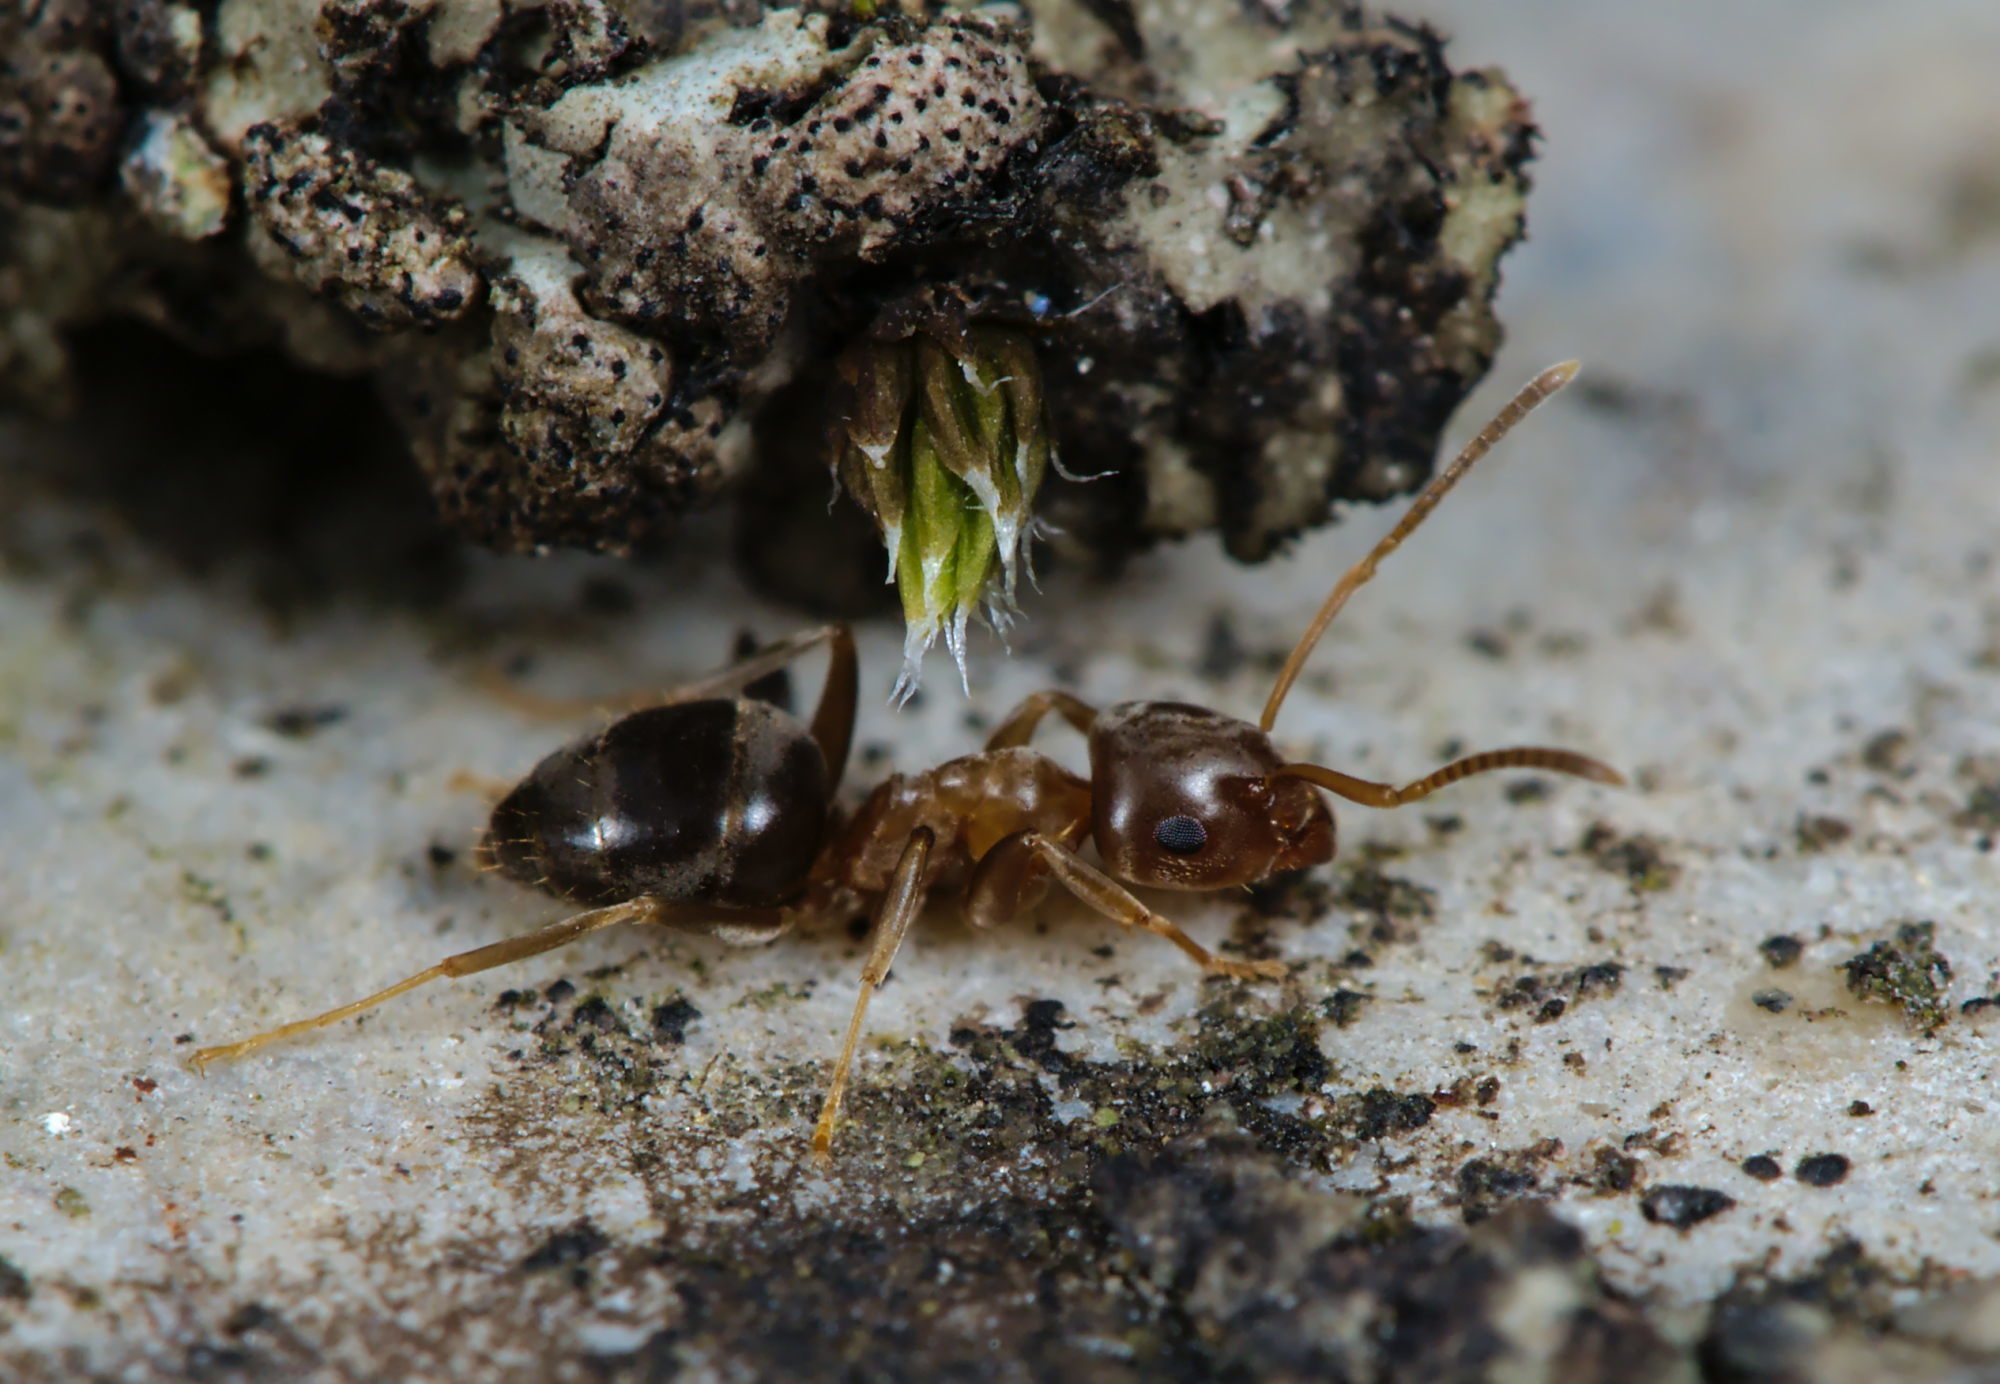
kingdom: Animalia
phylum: Arthropoda
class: Insecta
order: Hymenoptera
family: Formicidae
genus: Lasius
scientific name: Lasius brunneus
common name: Brown ant
